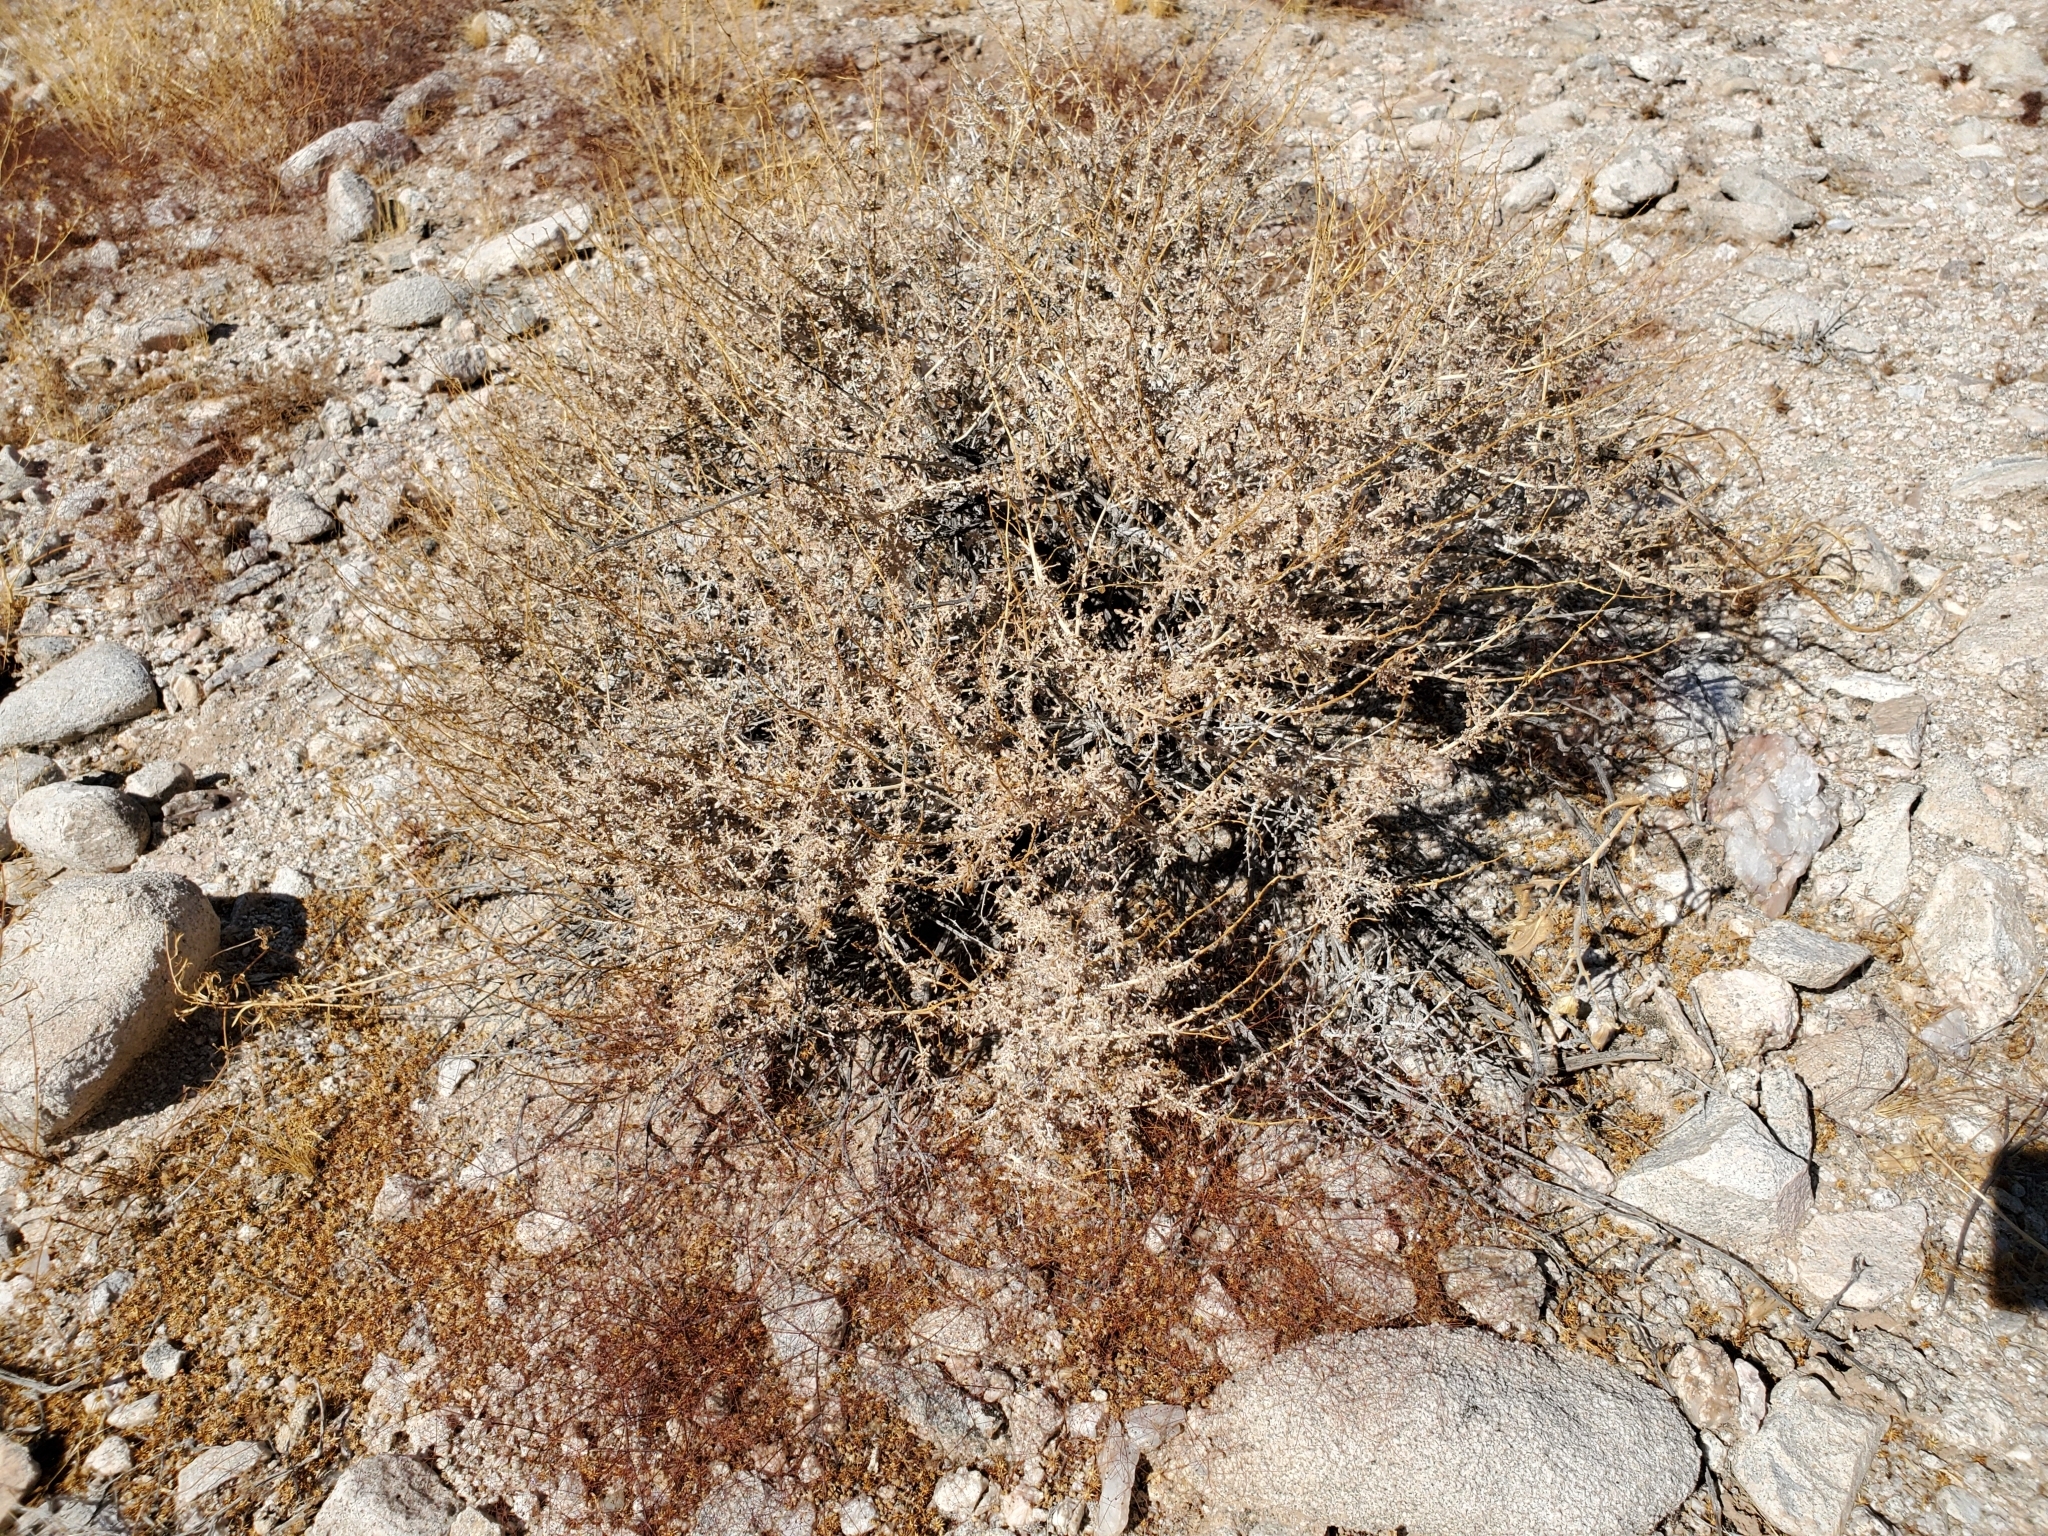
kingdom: Plantae
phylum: Tracheophyta
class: Magnoliopsida
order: Asterales
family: Asteraceae
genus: Ambrosia
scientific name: Ambrosia dumosa
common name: Bur-sage
